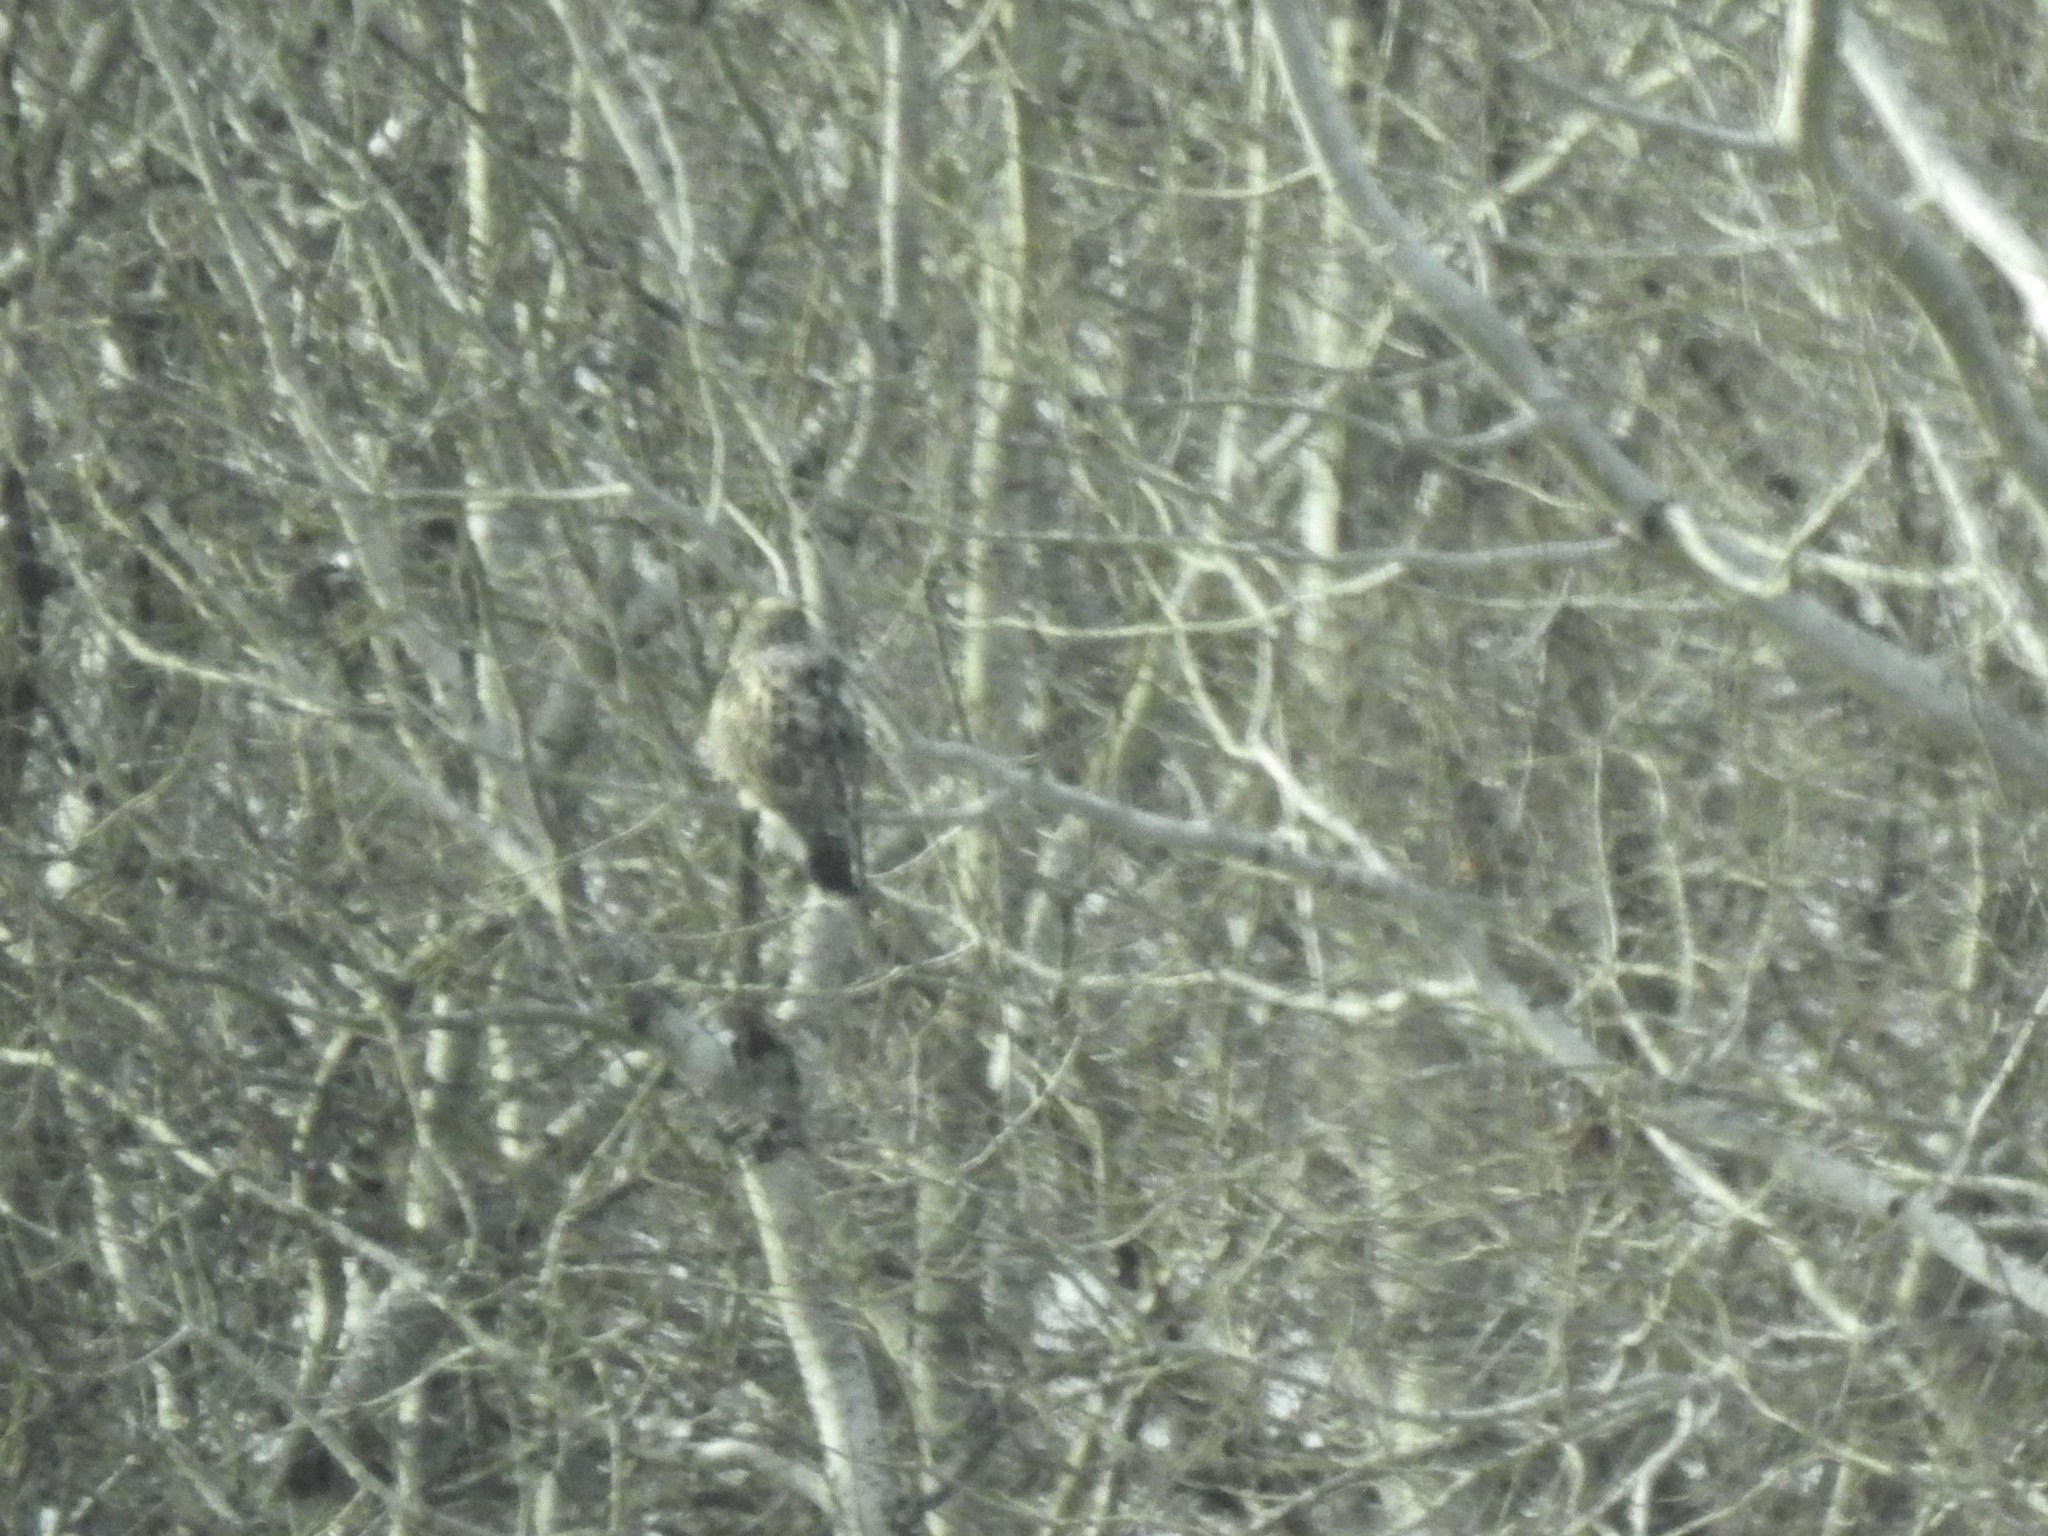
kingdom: Animalia
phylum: Chordata
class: Aves
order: Accipitriformes
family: Accipitridae
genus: Buteo
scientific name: Buteo lagopus
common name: Rough-legged buzzard
